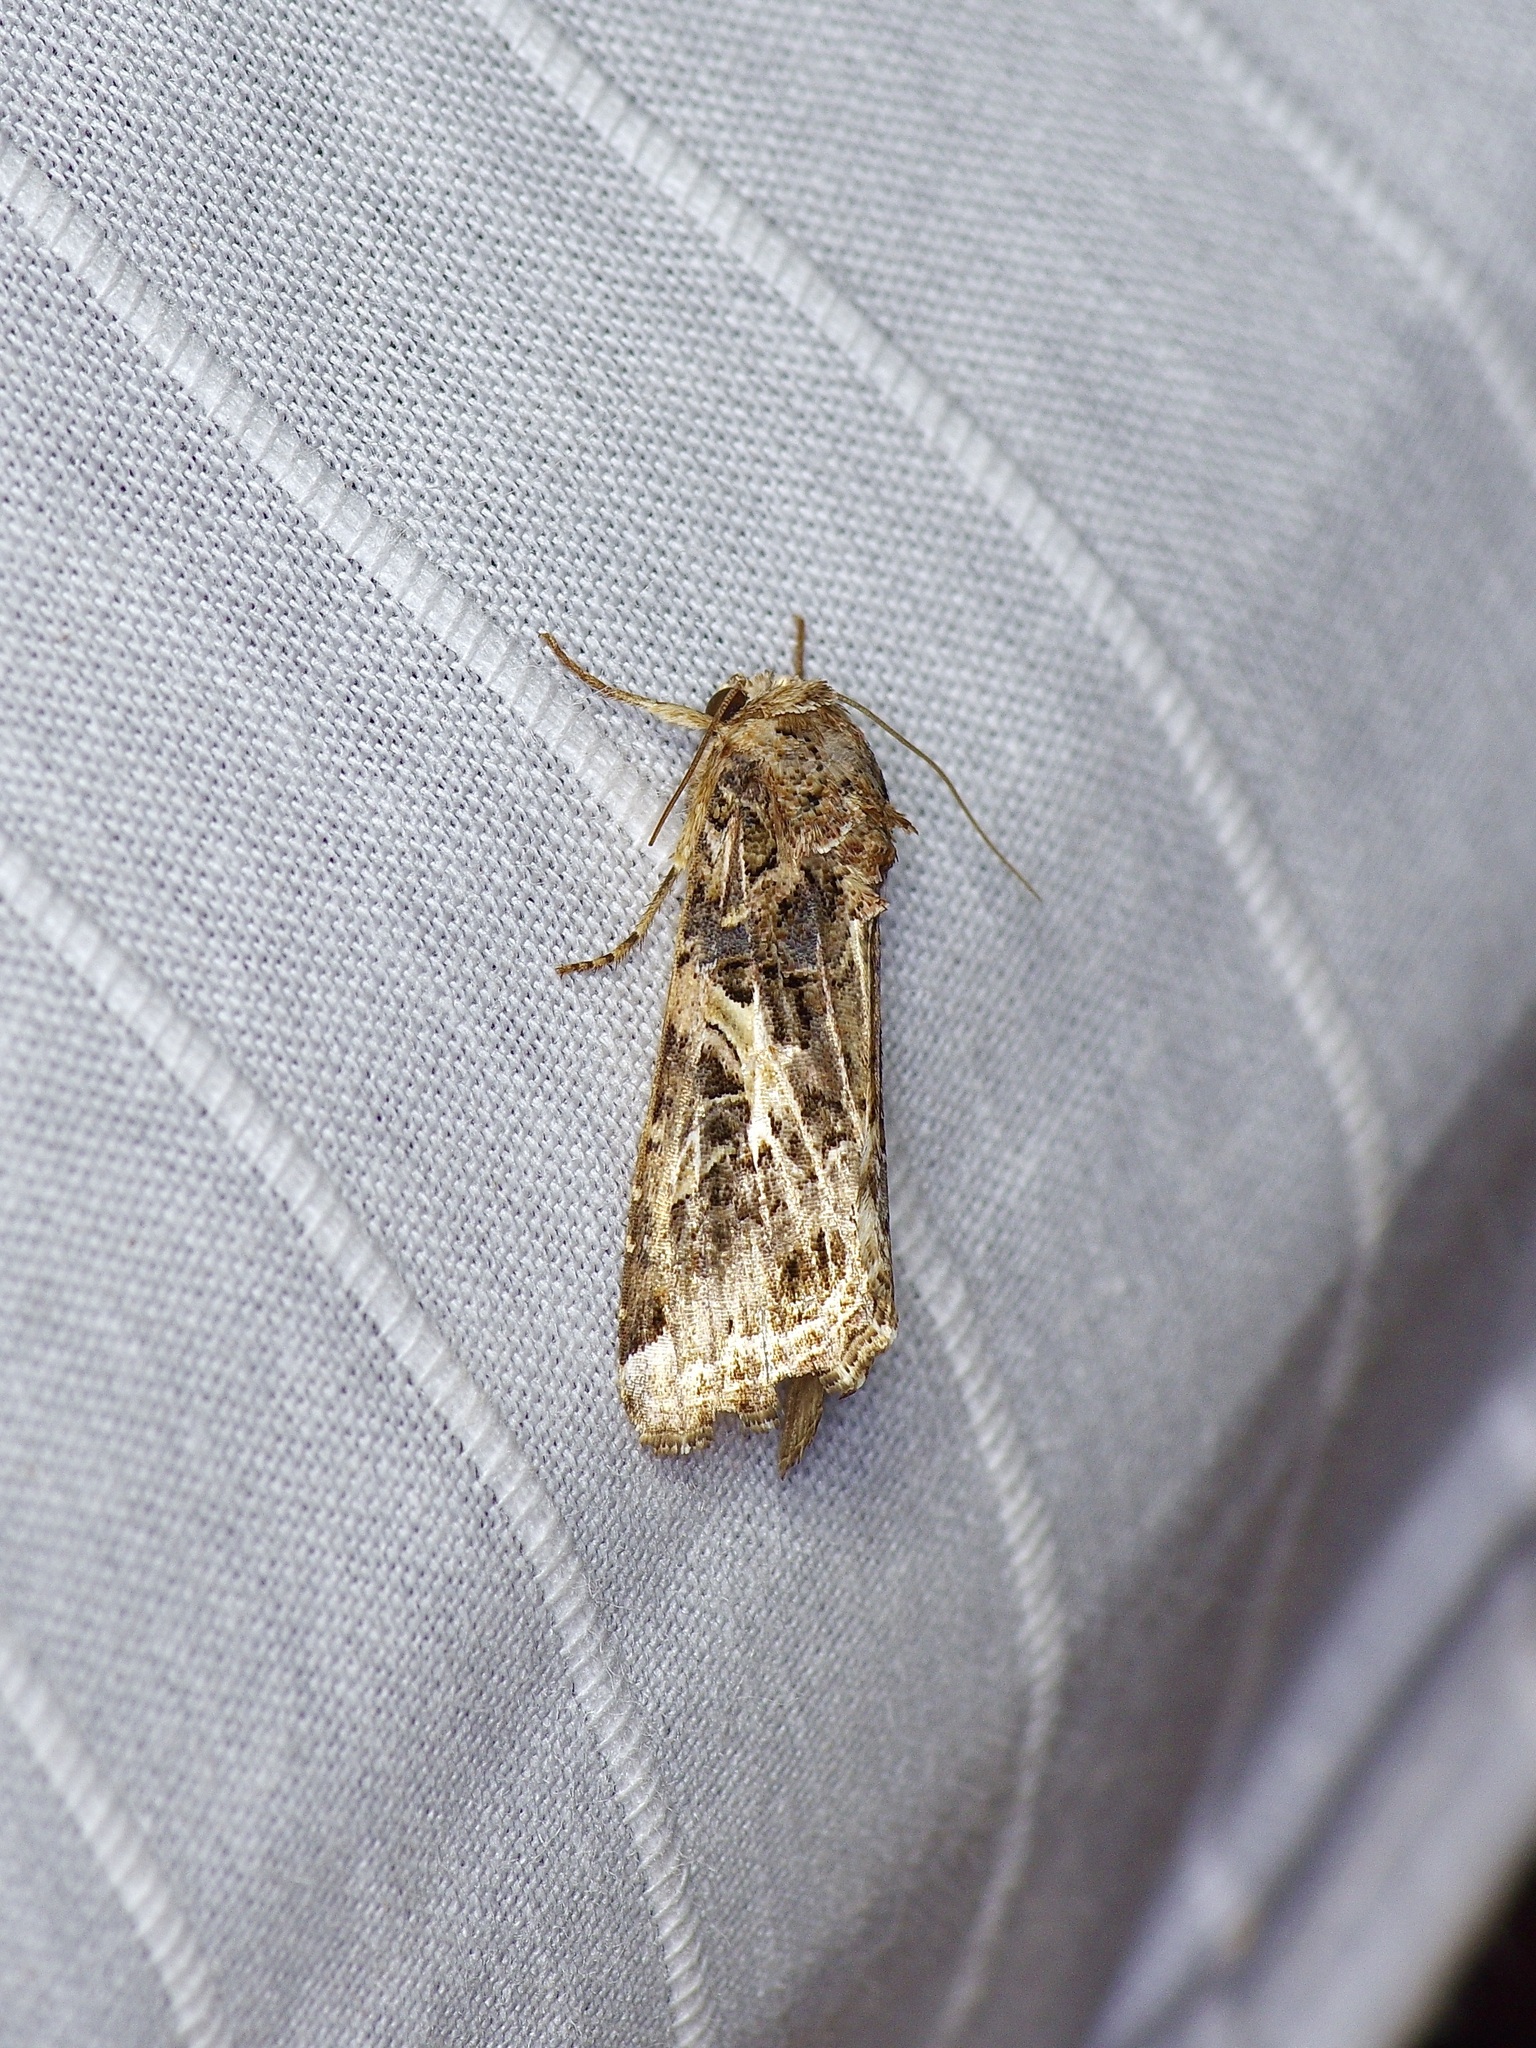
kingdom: Animalia
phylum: Arthropoda
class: Insecta
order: Lepidoptera
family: Noctuidae
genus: Spodoptera
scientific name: Spodoptera ornithogalli
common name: Yellow-striped armyworm
